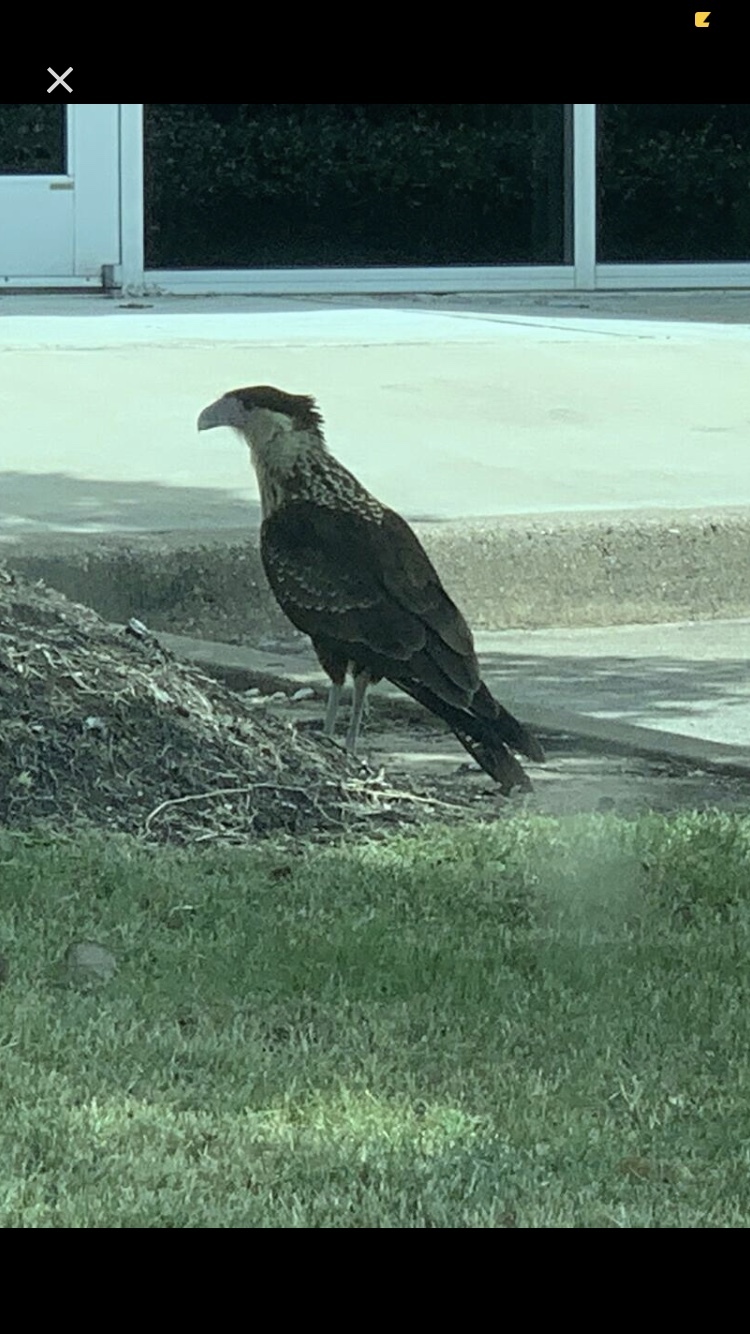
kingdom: Animalia
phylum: Chordata
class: Aves
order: Falconiformes
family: Falconidae
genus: Caracara
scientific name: Caracara plancus
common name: Southern caracara
